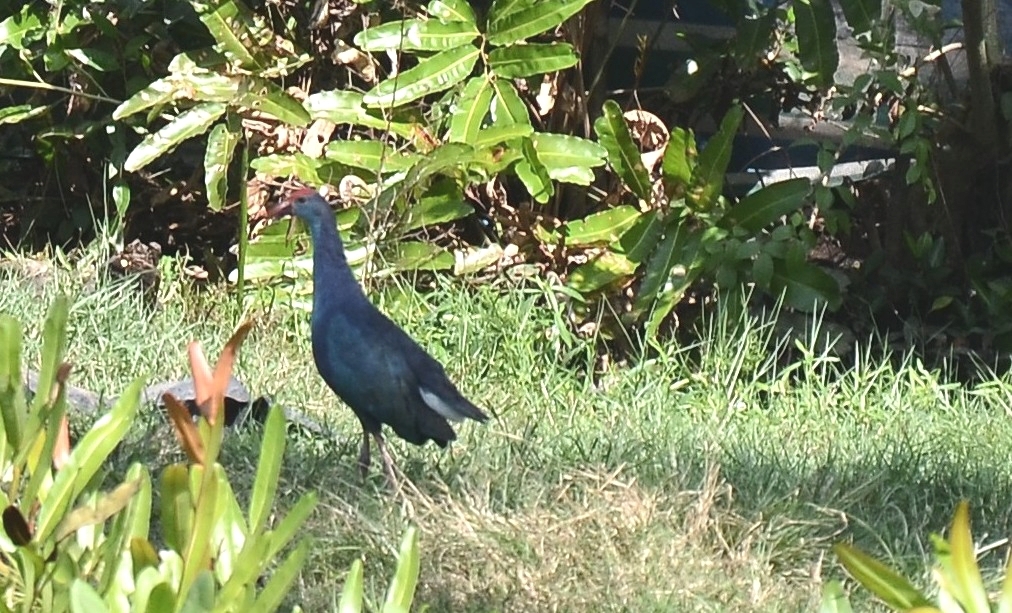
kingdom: Animalia
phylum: Chordata
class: Aves
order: Gruiformes
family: Rallidae
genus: Porphyrio
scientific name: Porphyrio porphyrio
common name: Purple swamphen
